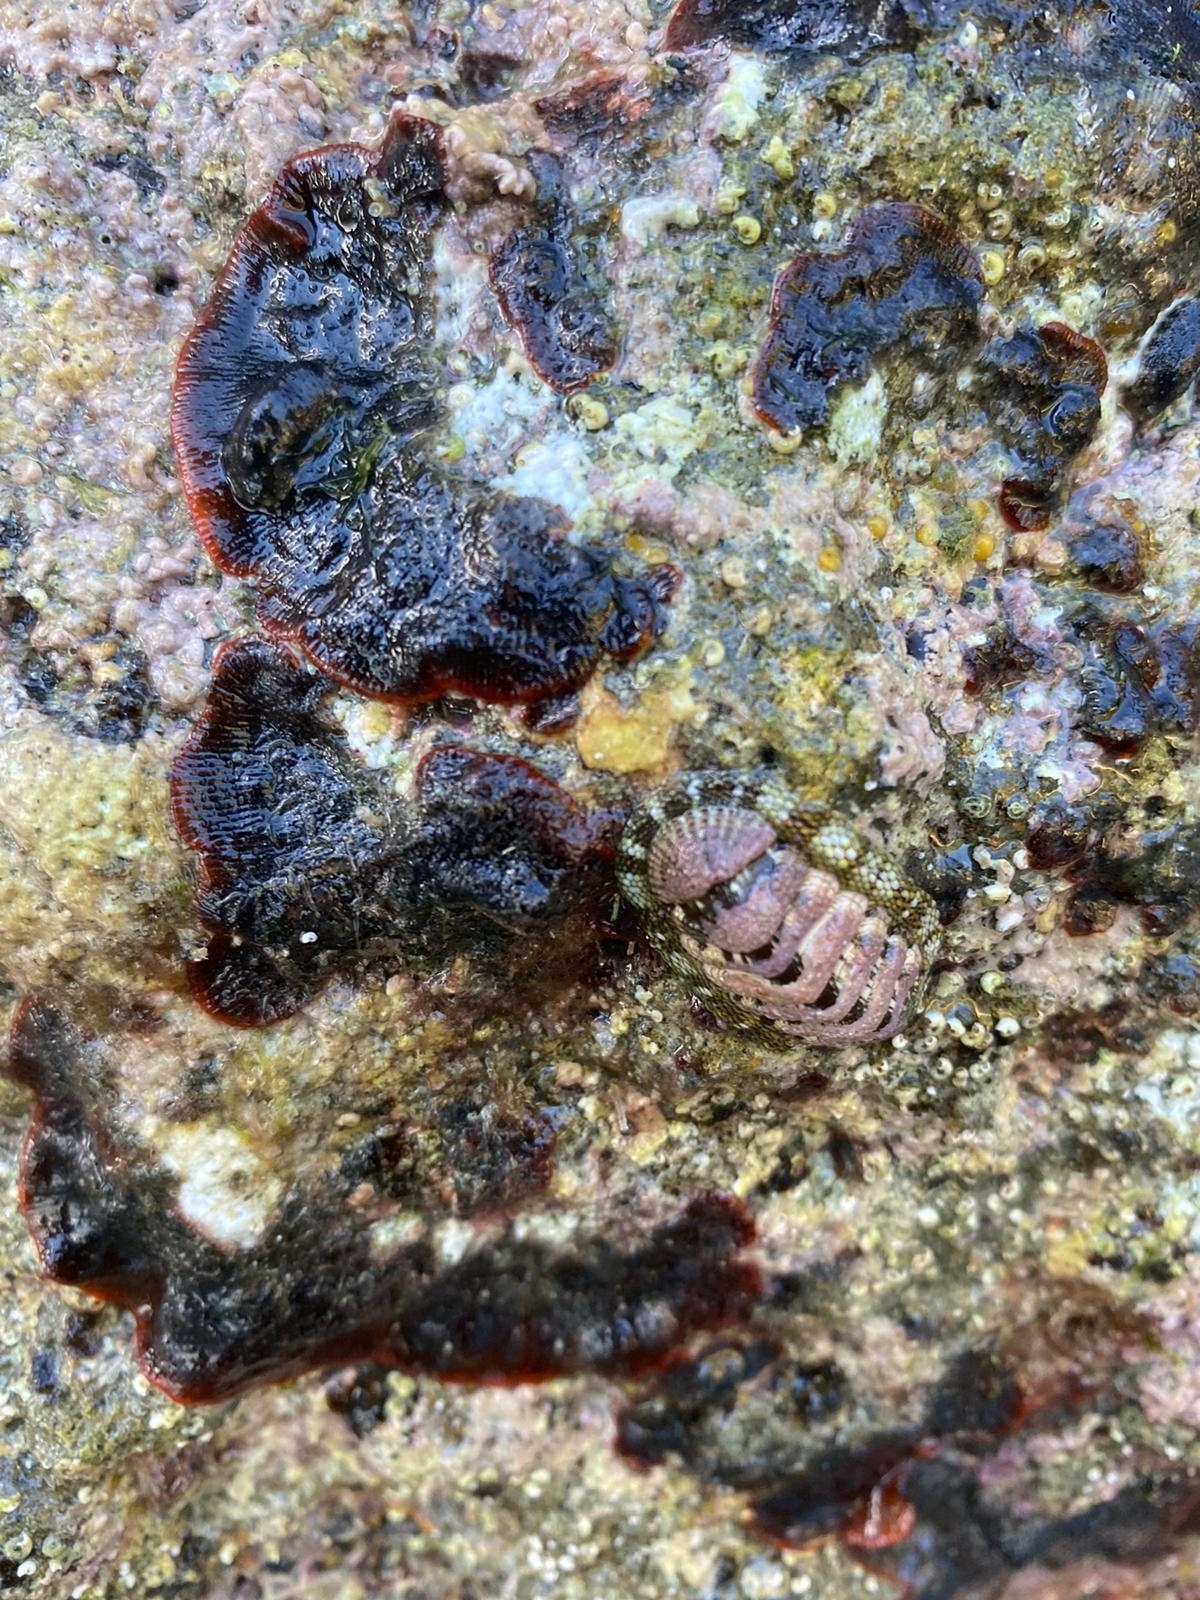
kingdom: Animalia
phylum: Mollusca
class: Polyplacophora
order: Chitonida
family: Chitonidae
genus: Sypharochiton
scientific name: Sypharochiton pelliserpentis
